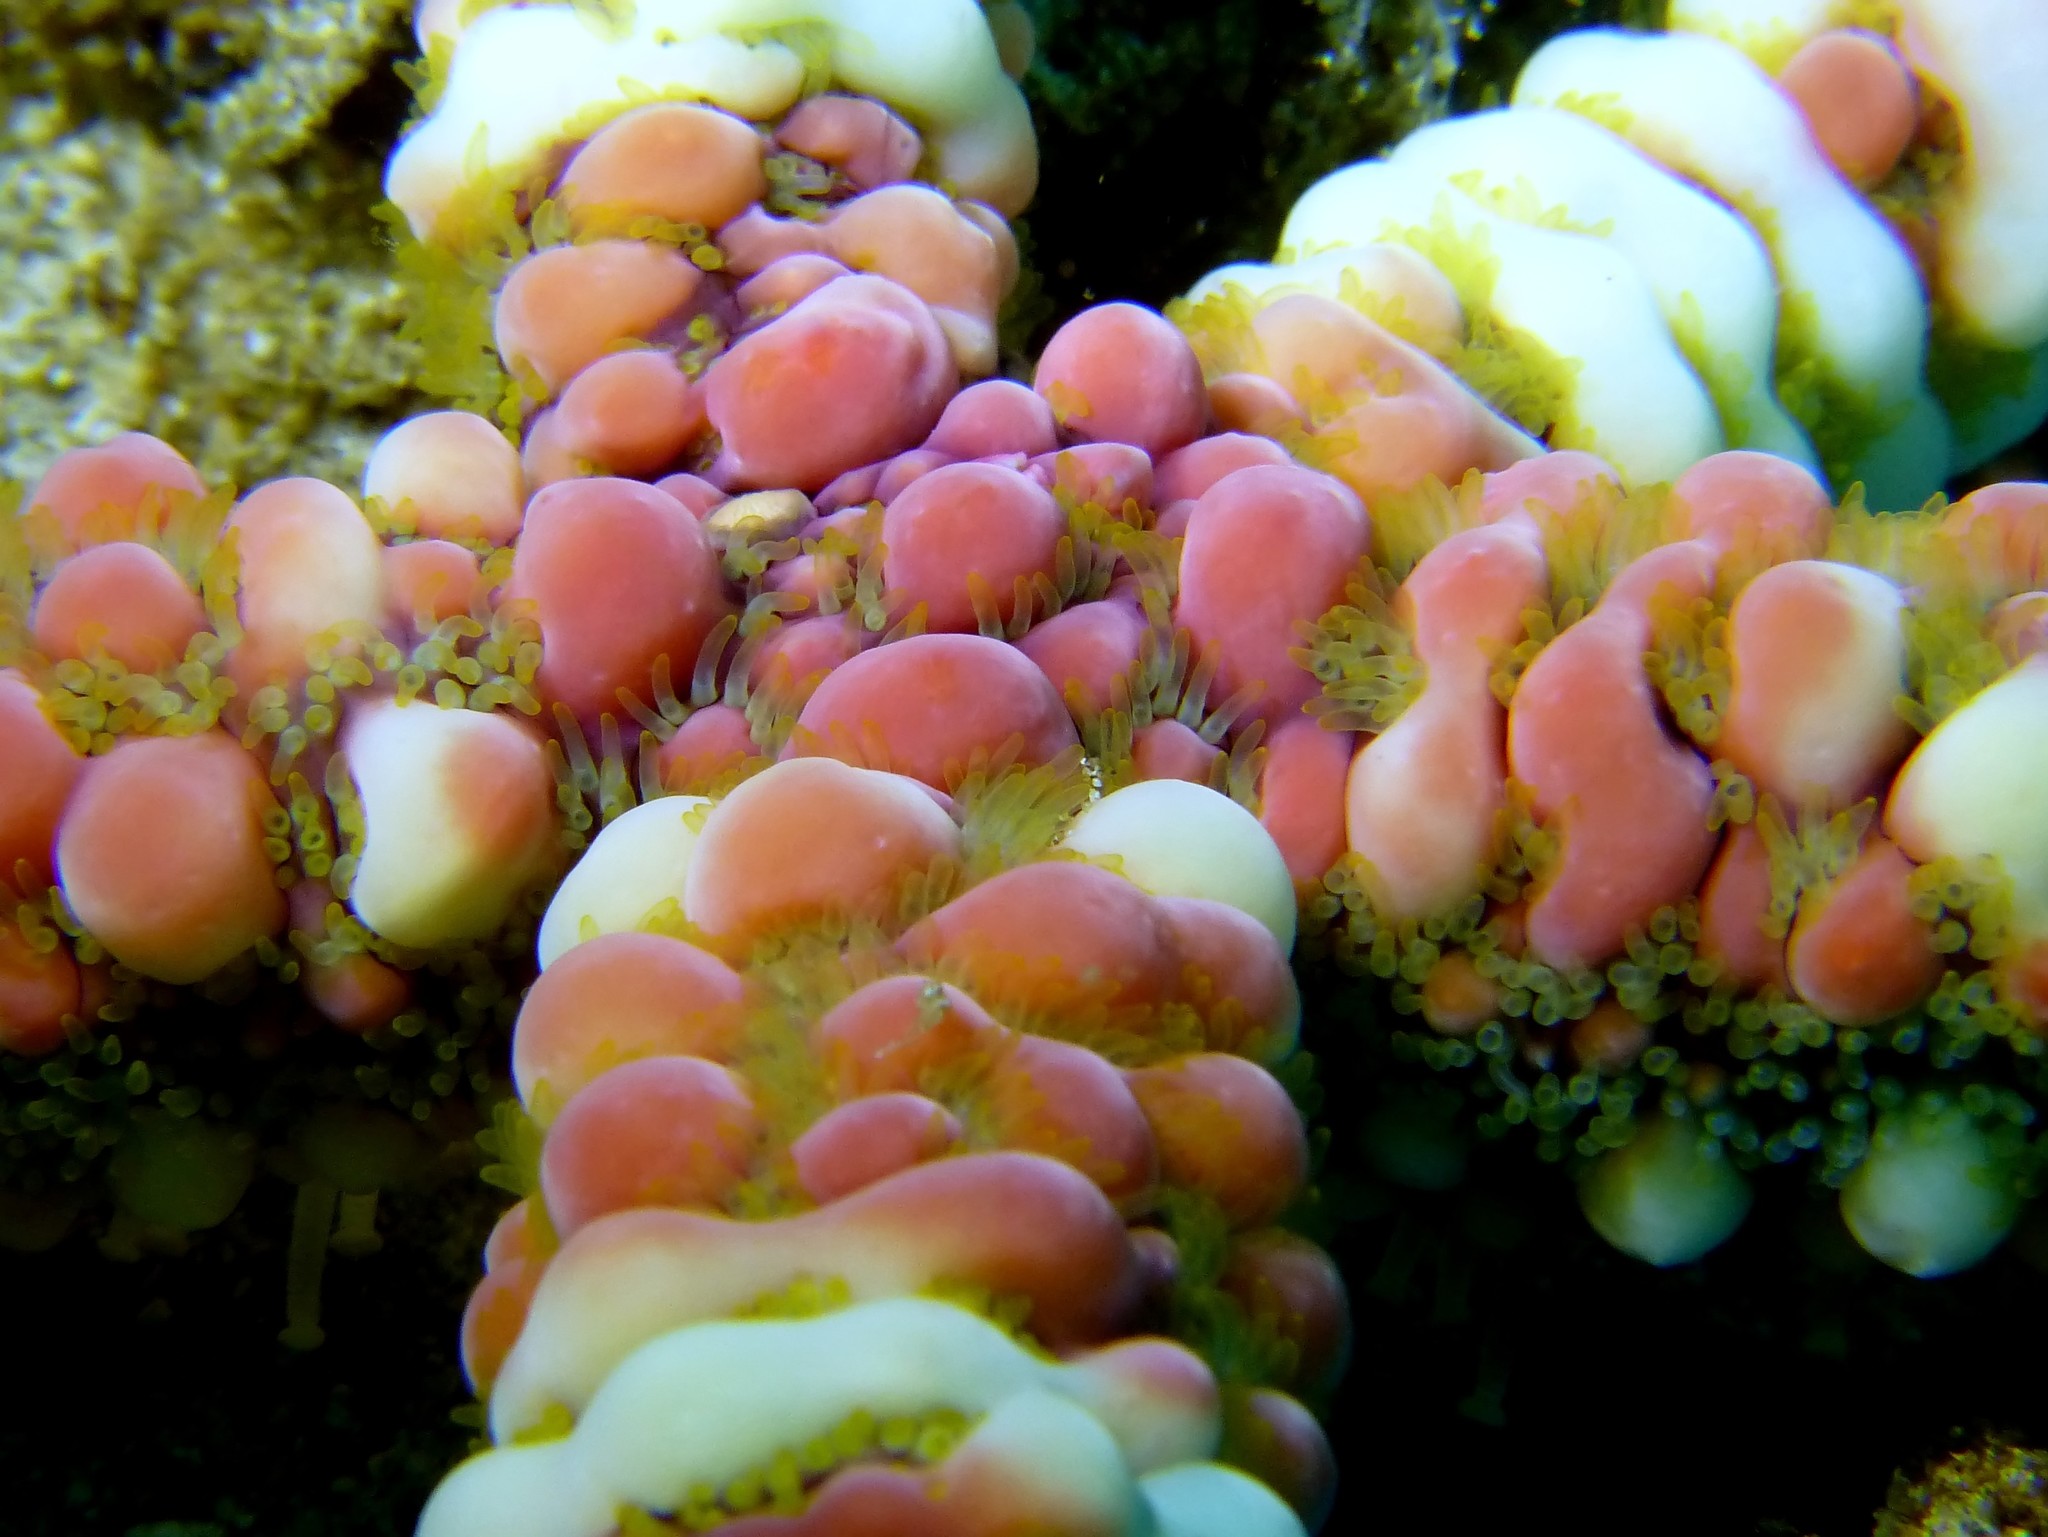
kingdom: Animalia
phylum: Echinodermata
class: Asteroidea
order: Spinulosida
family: Echinasteridae
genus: Echinaster
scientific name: Echinaster callosus
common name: Banded bubble star
